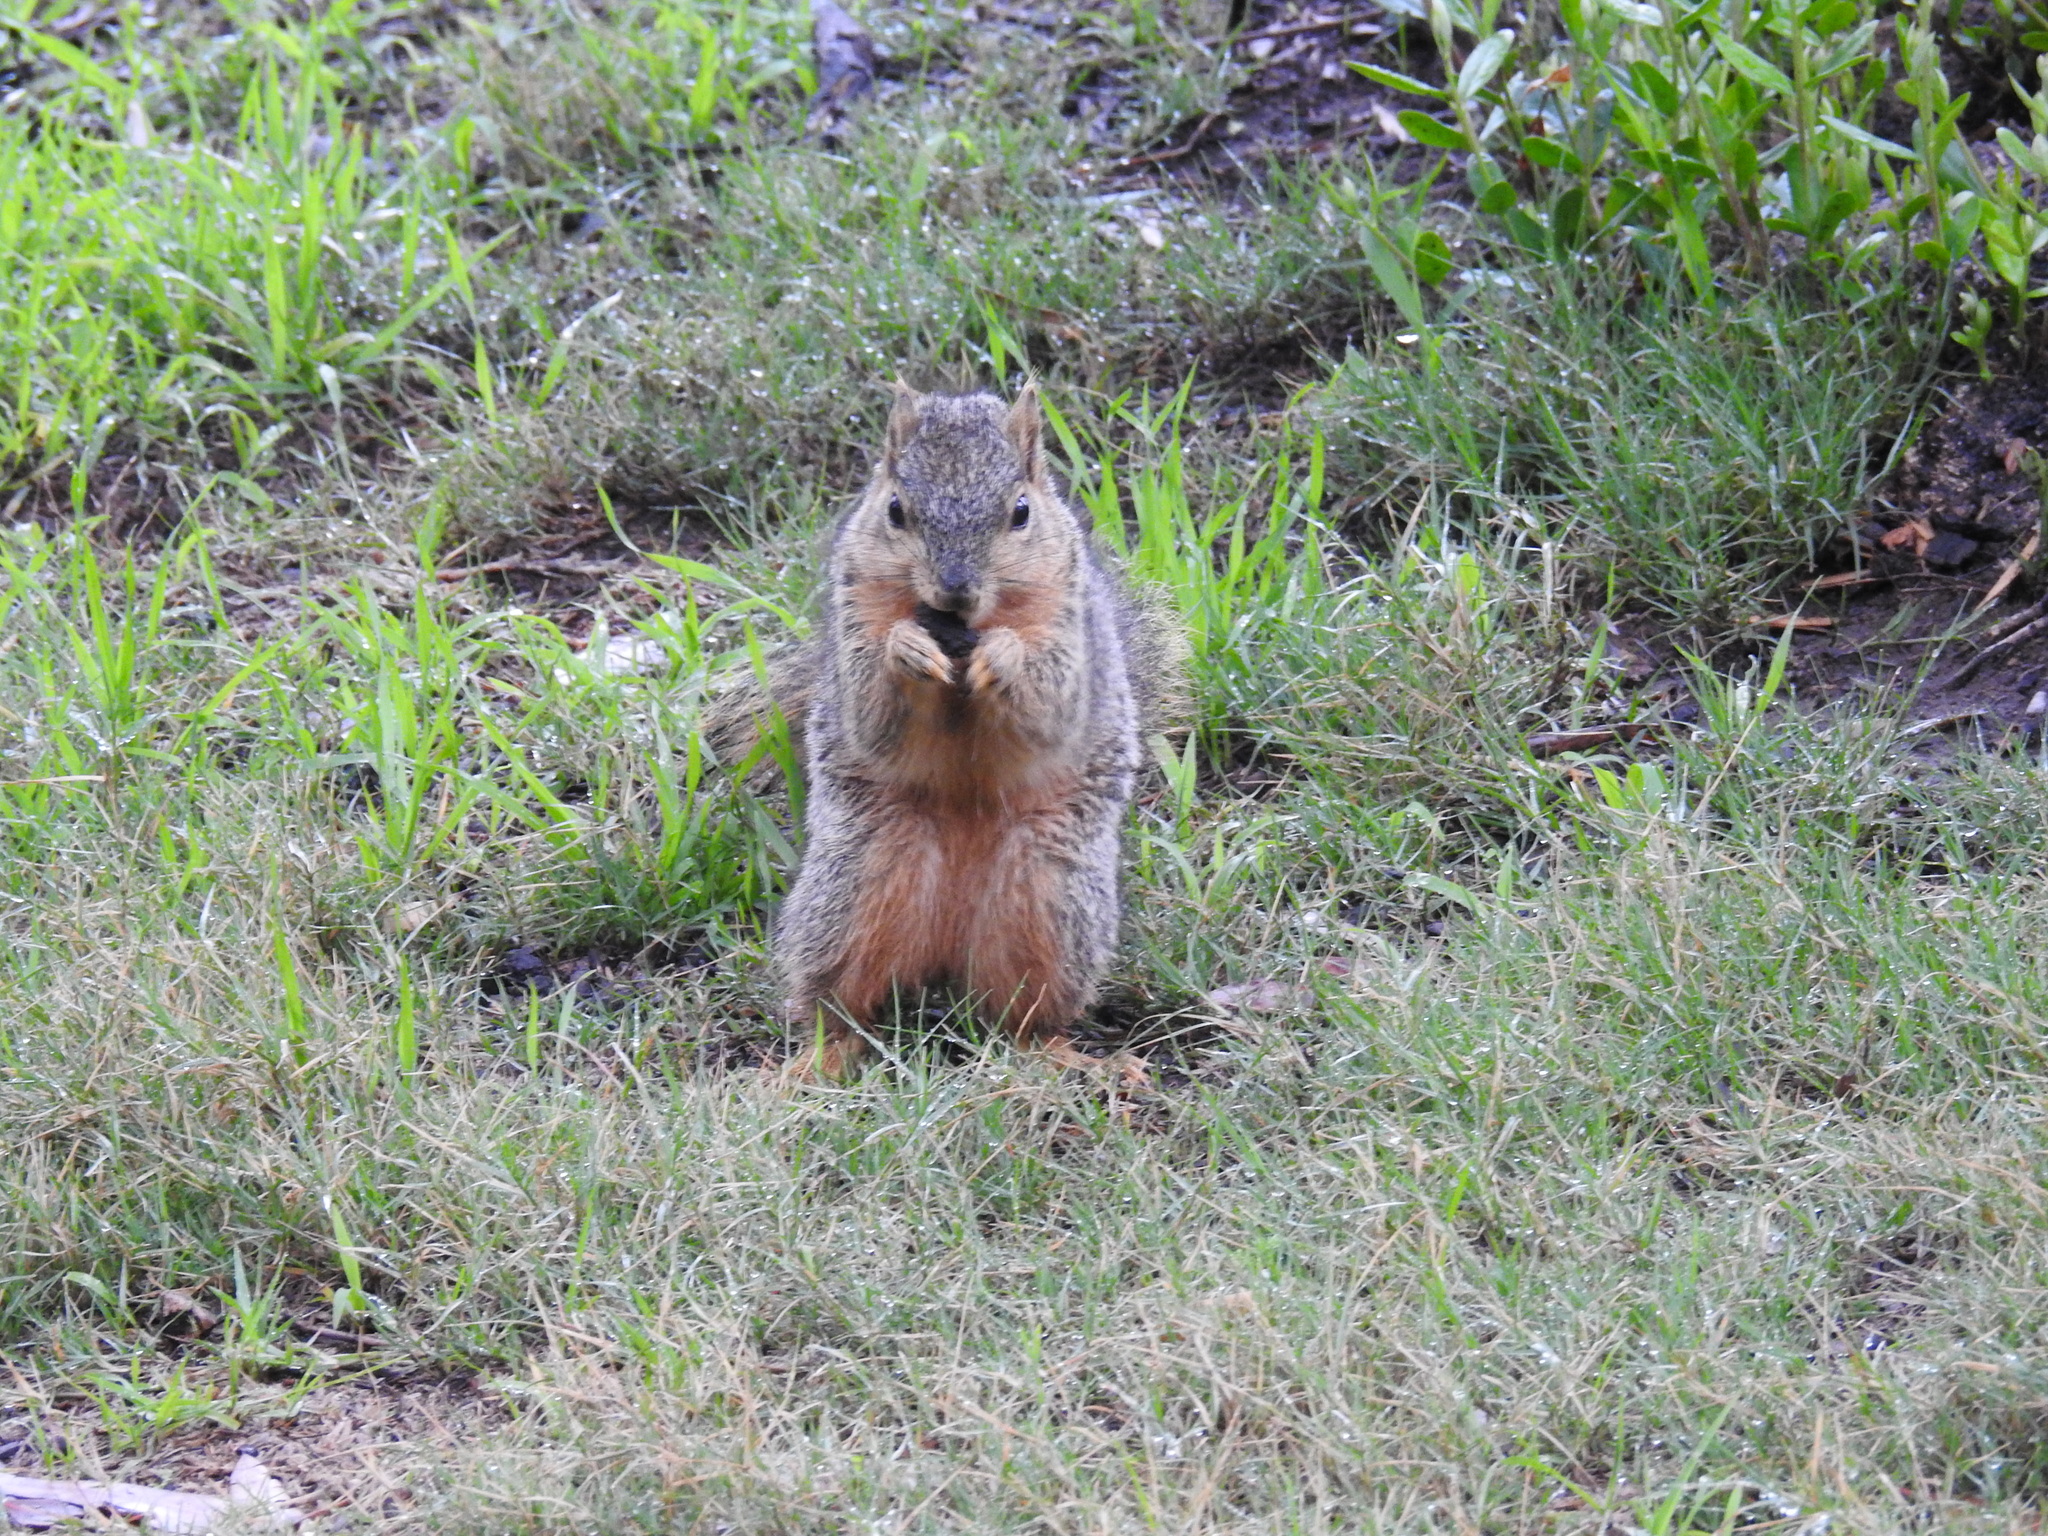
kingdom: Animalia
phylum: Chordata
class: Mammalia
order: Rodentia
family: Sciuridae
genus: Sciurus
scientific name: Sciurus niger
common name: Fox squirrel
